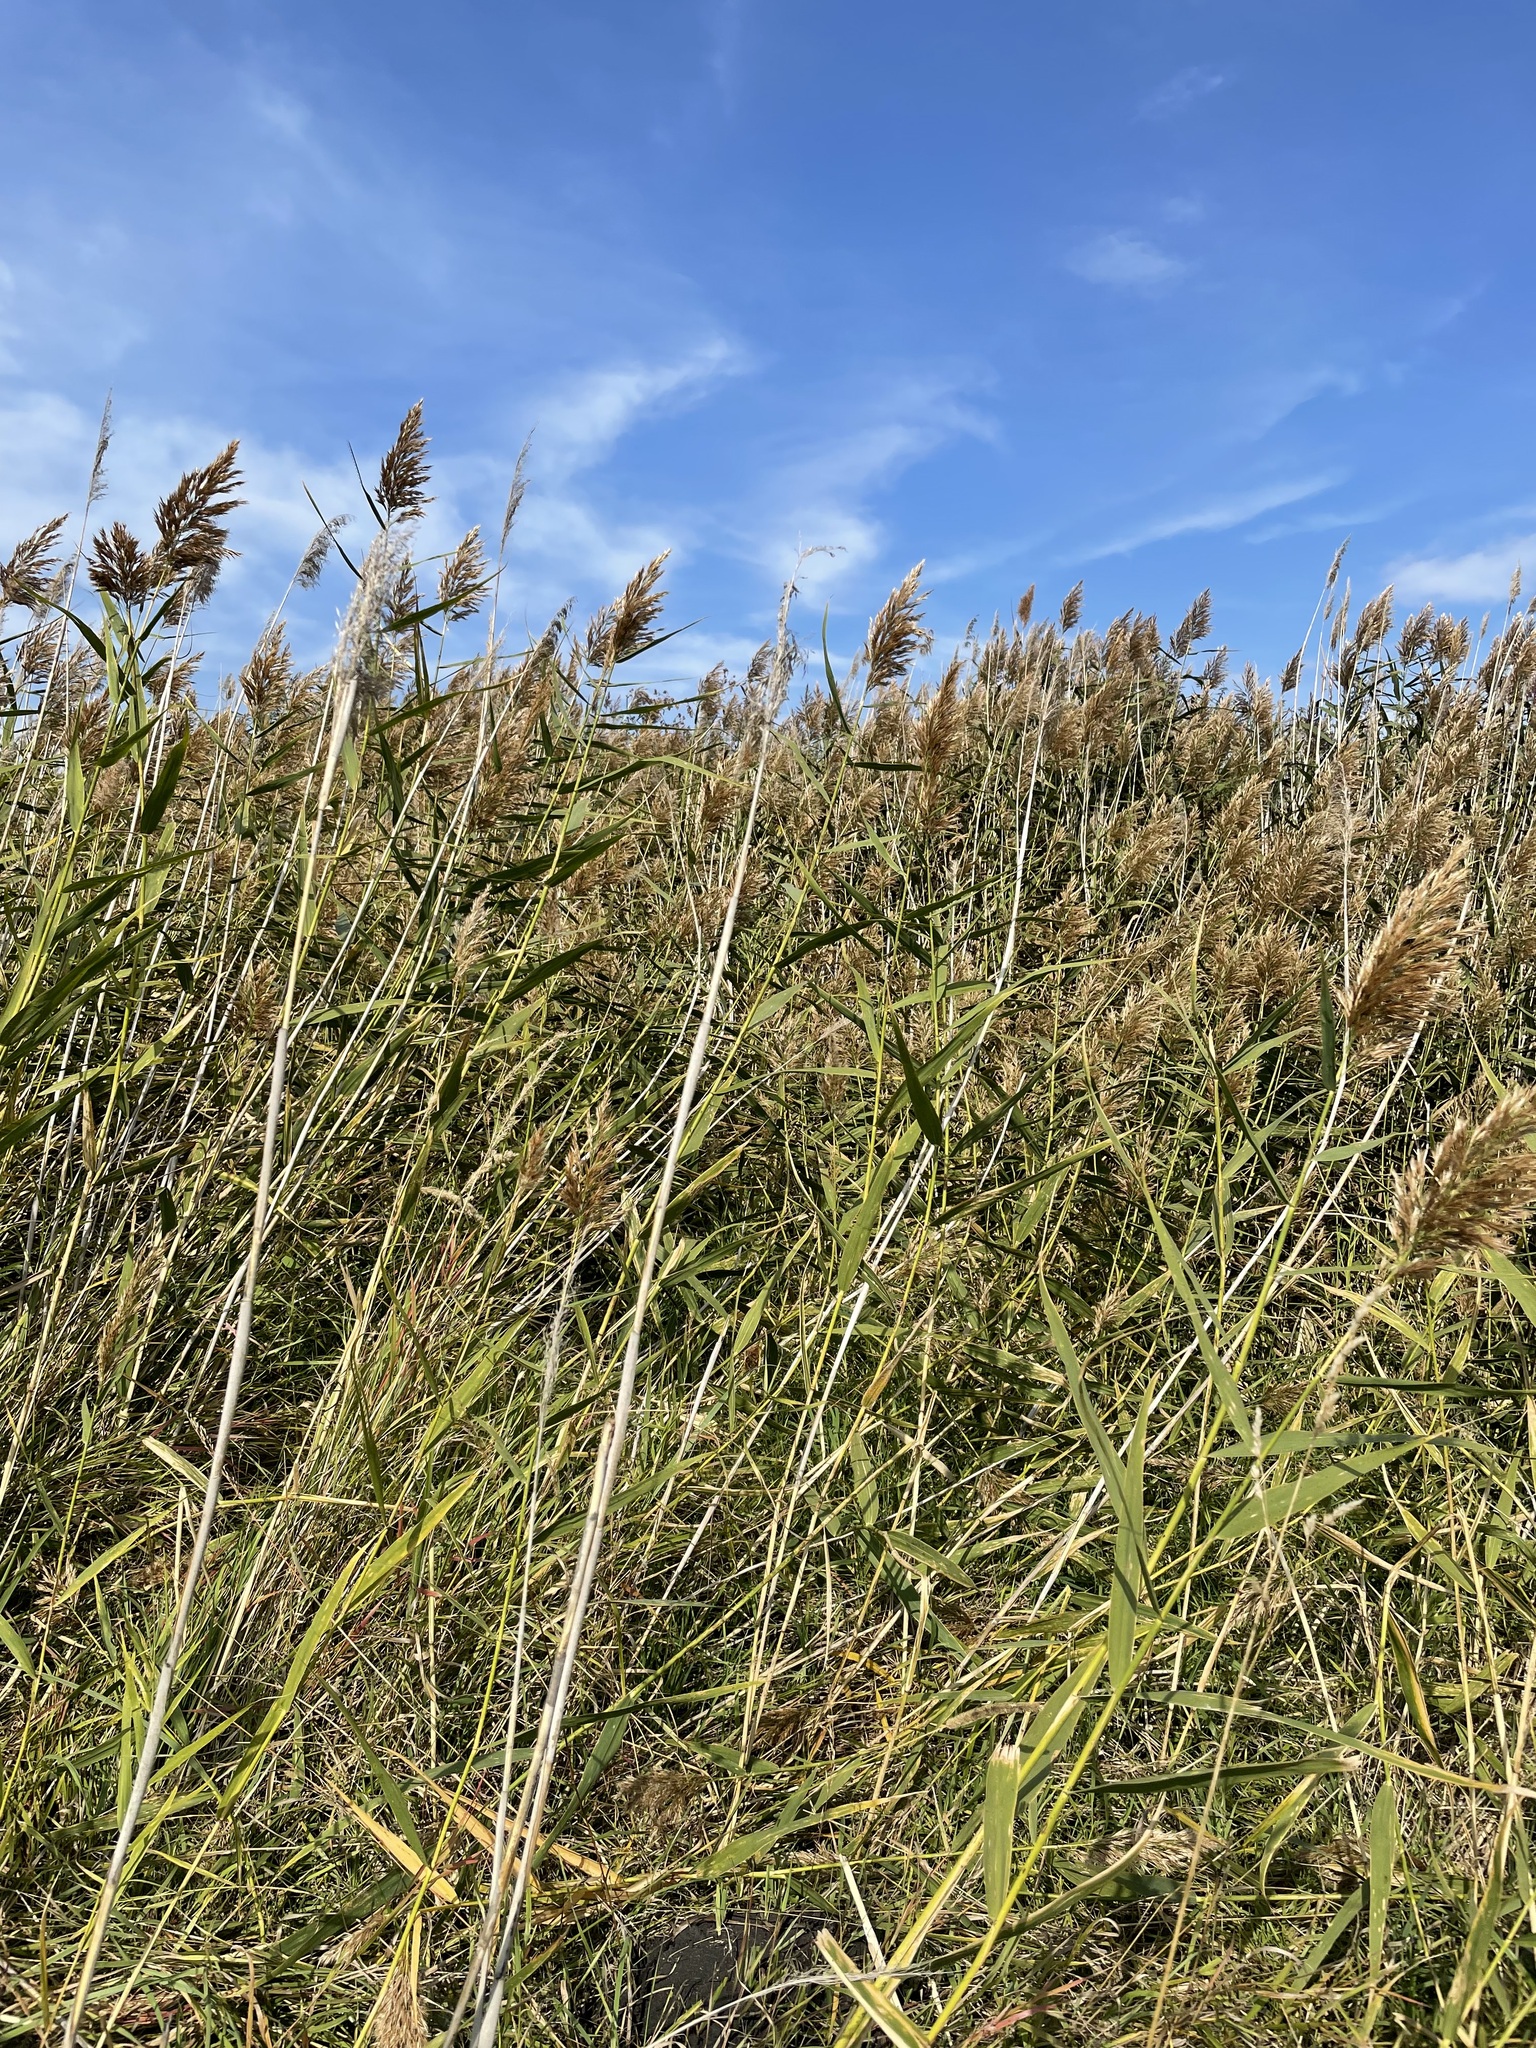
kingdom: Plantae
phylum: Tracheophyta
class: Liliopsida
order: Poales
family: Poaceae
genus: Phragmites
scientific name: Phragmites australis
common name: Common reed
